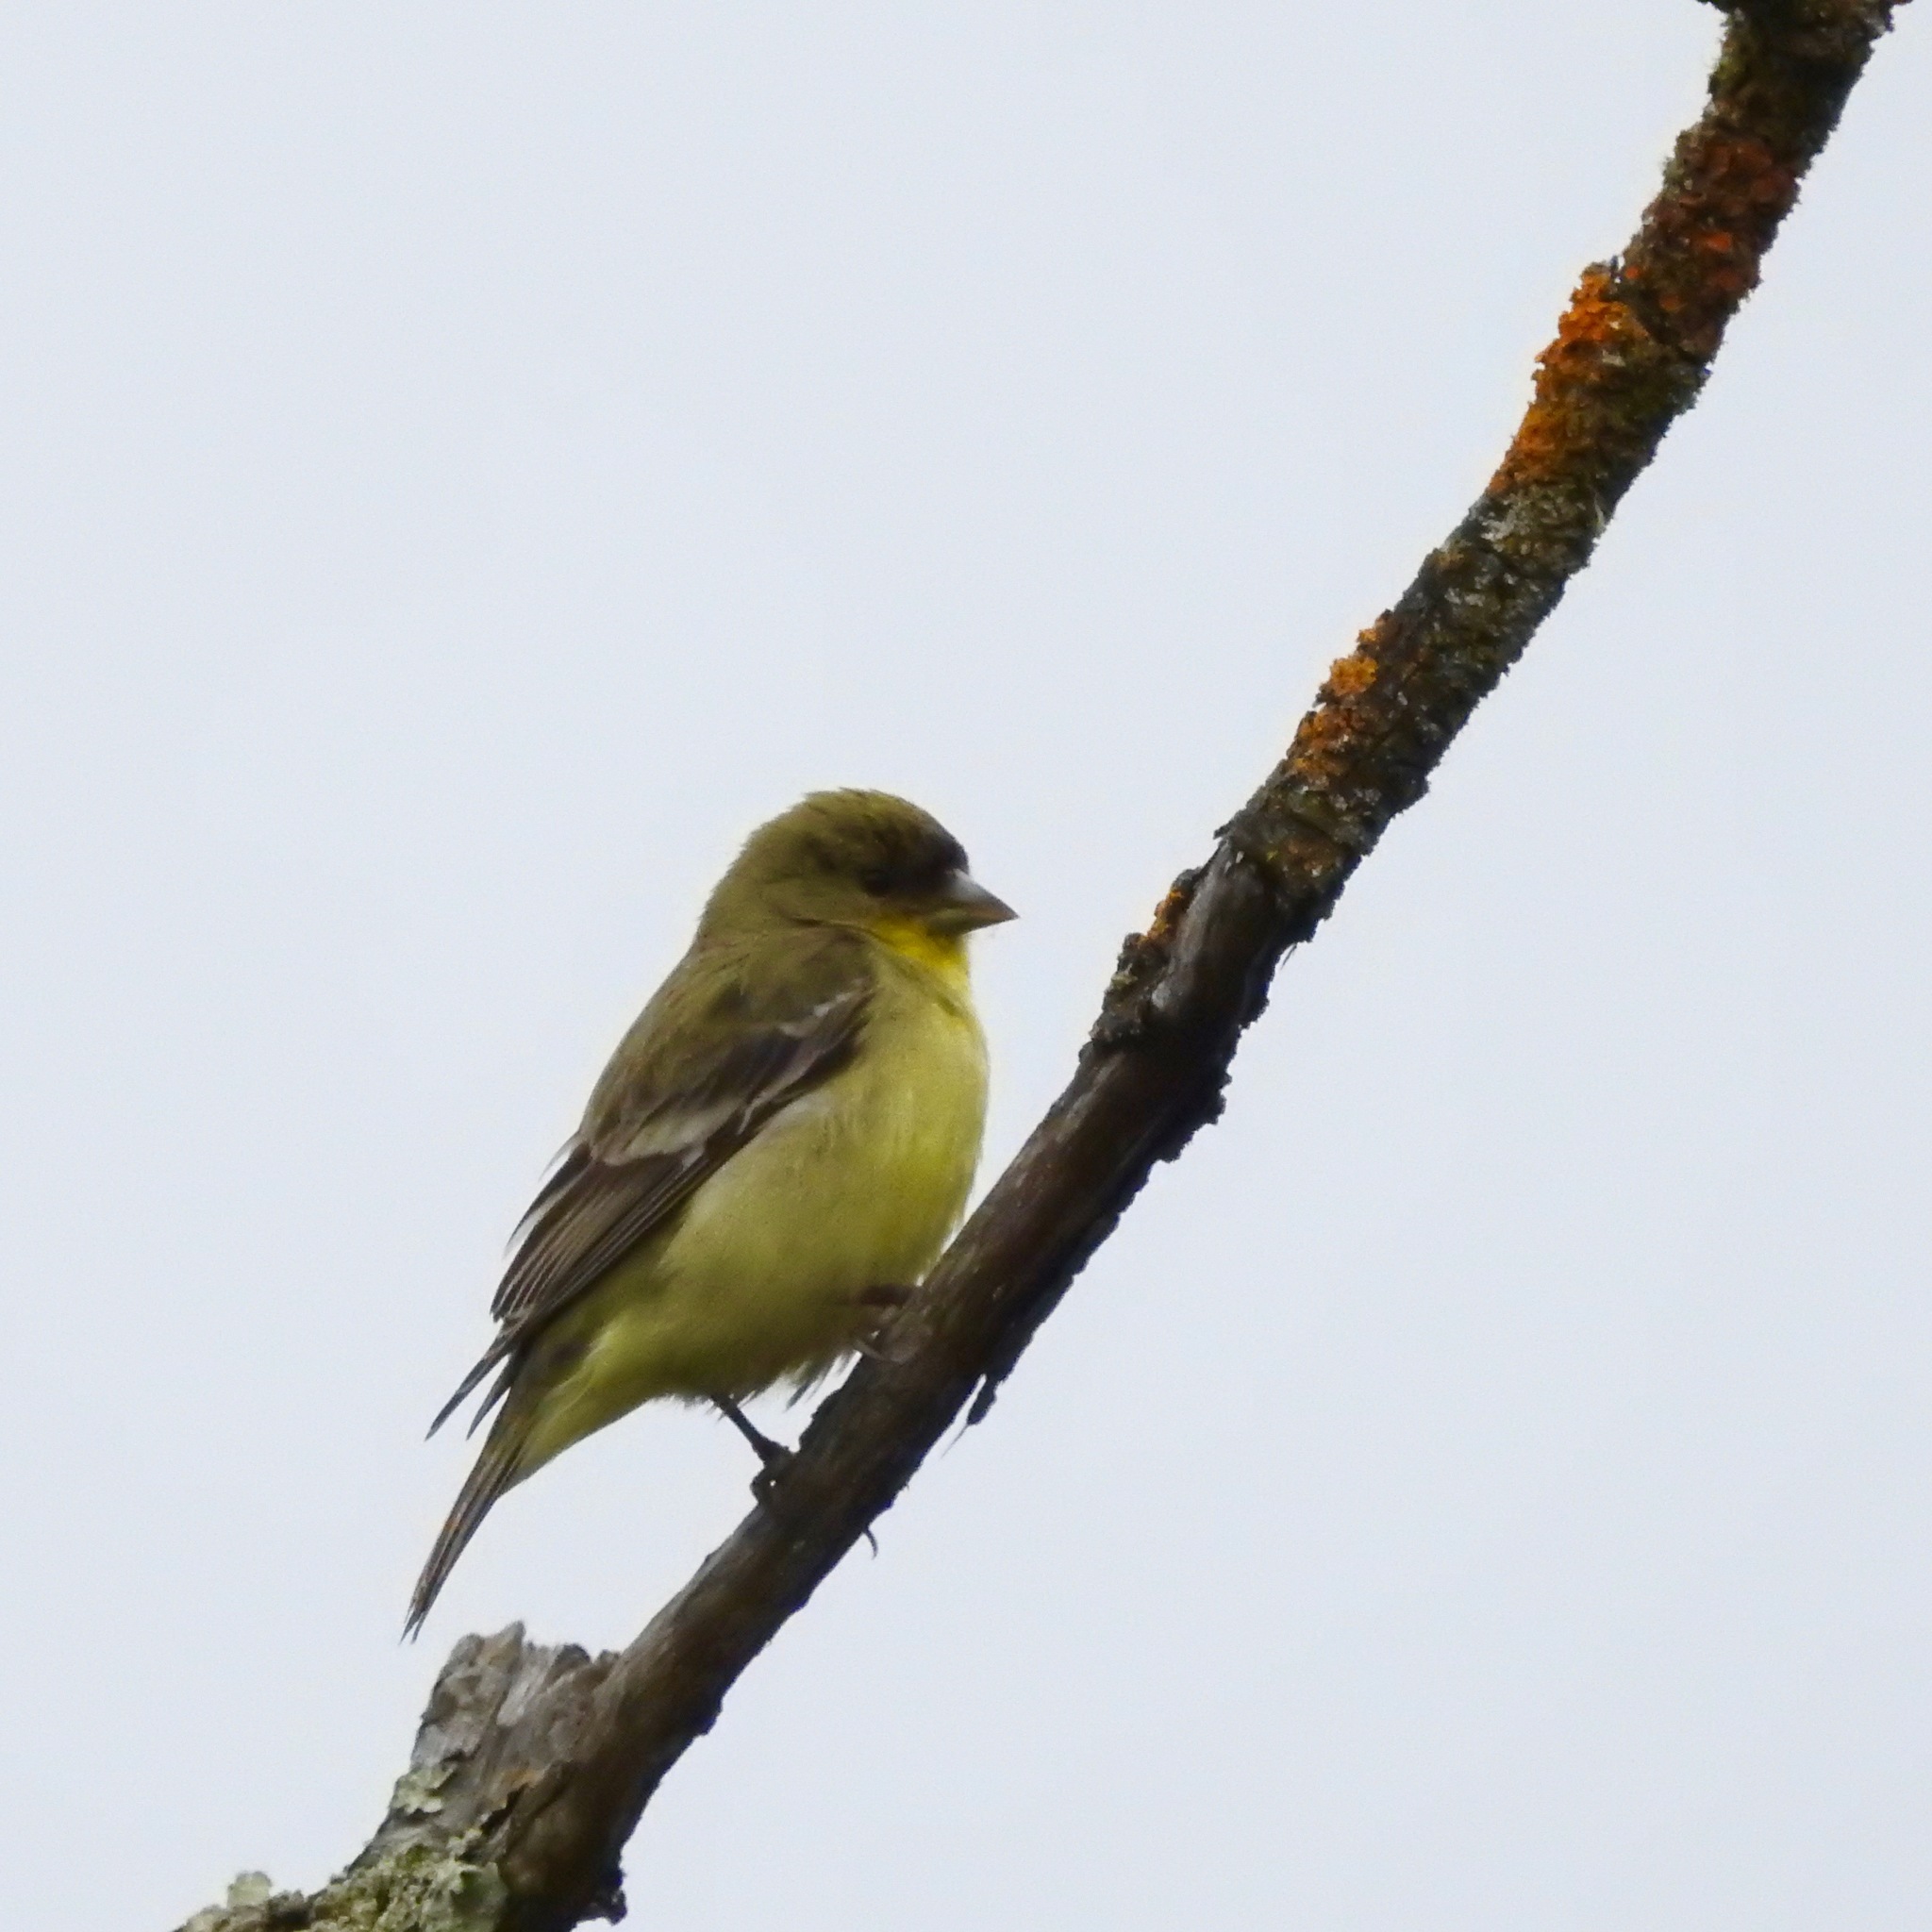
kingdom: Animalia
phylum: Chordata
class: Aves
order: Passeriformes
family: Fringillidae
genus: Spinus
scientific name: Spinus psaltria
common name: Lesser goldfinch
